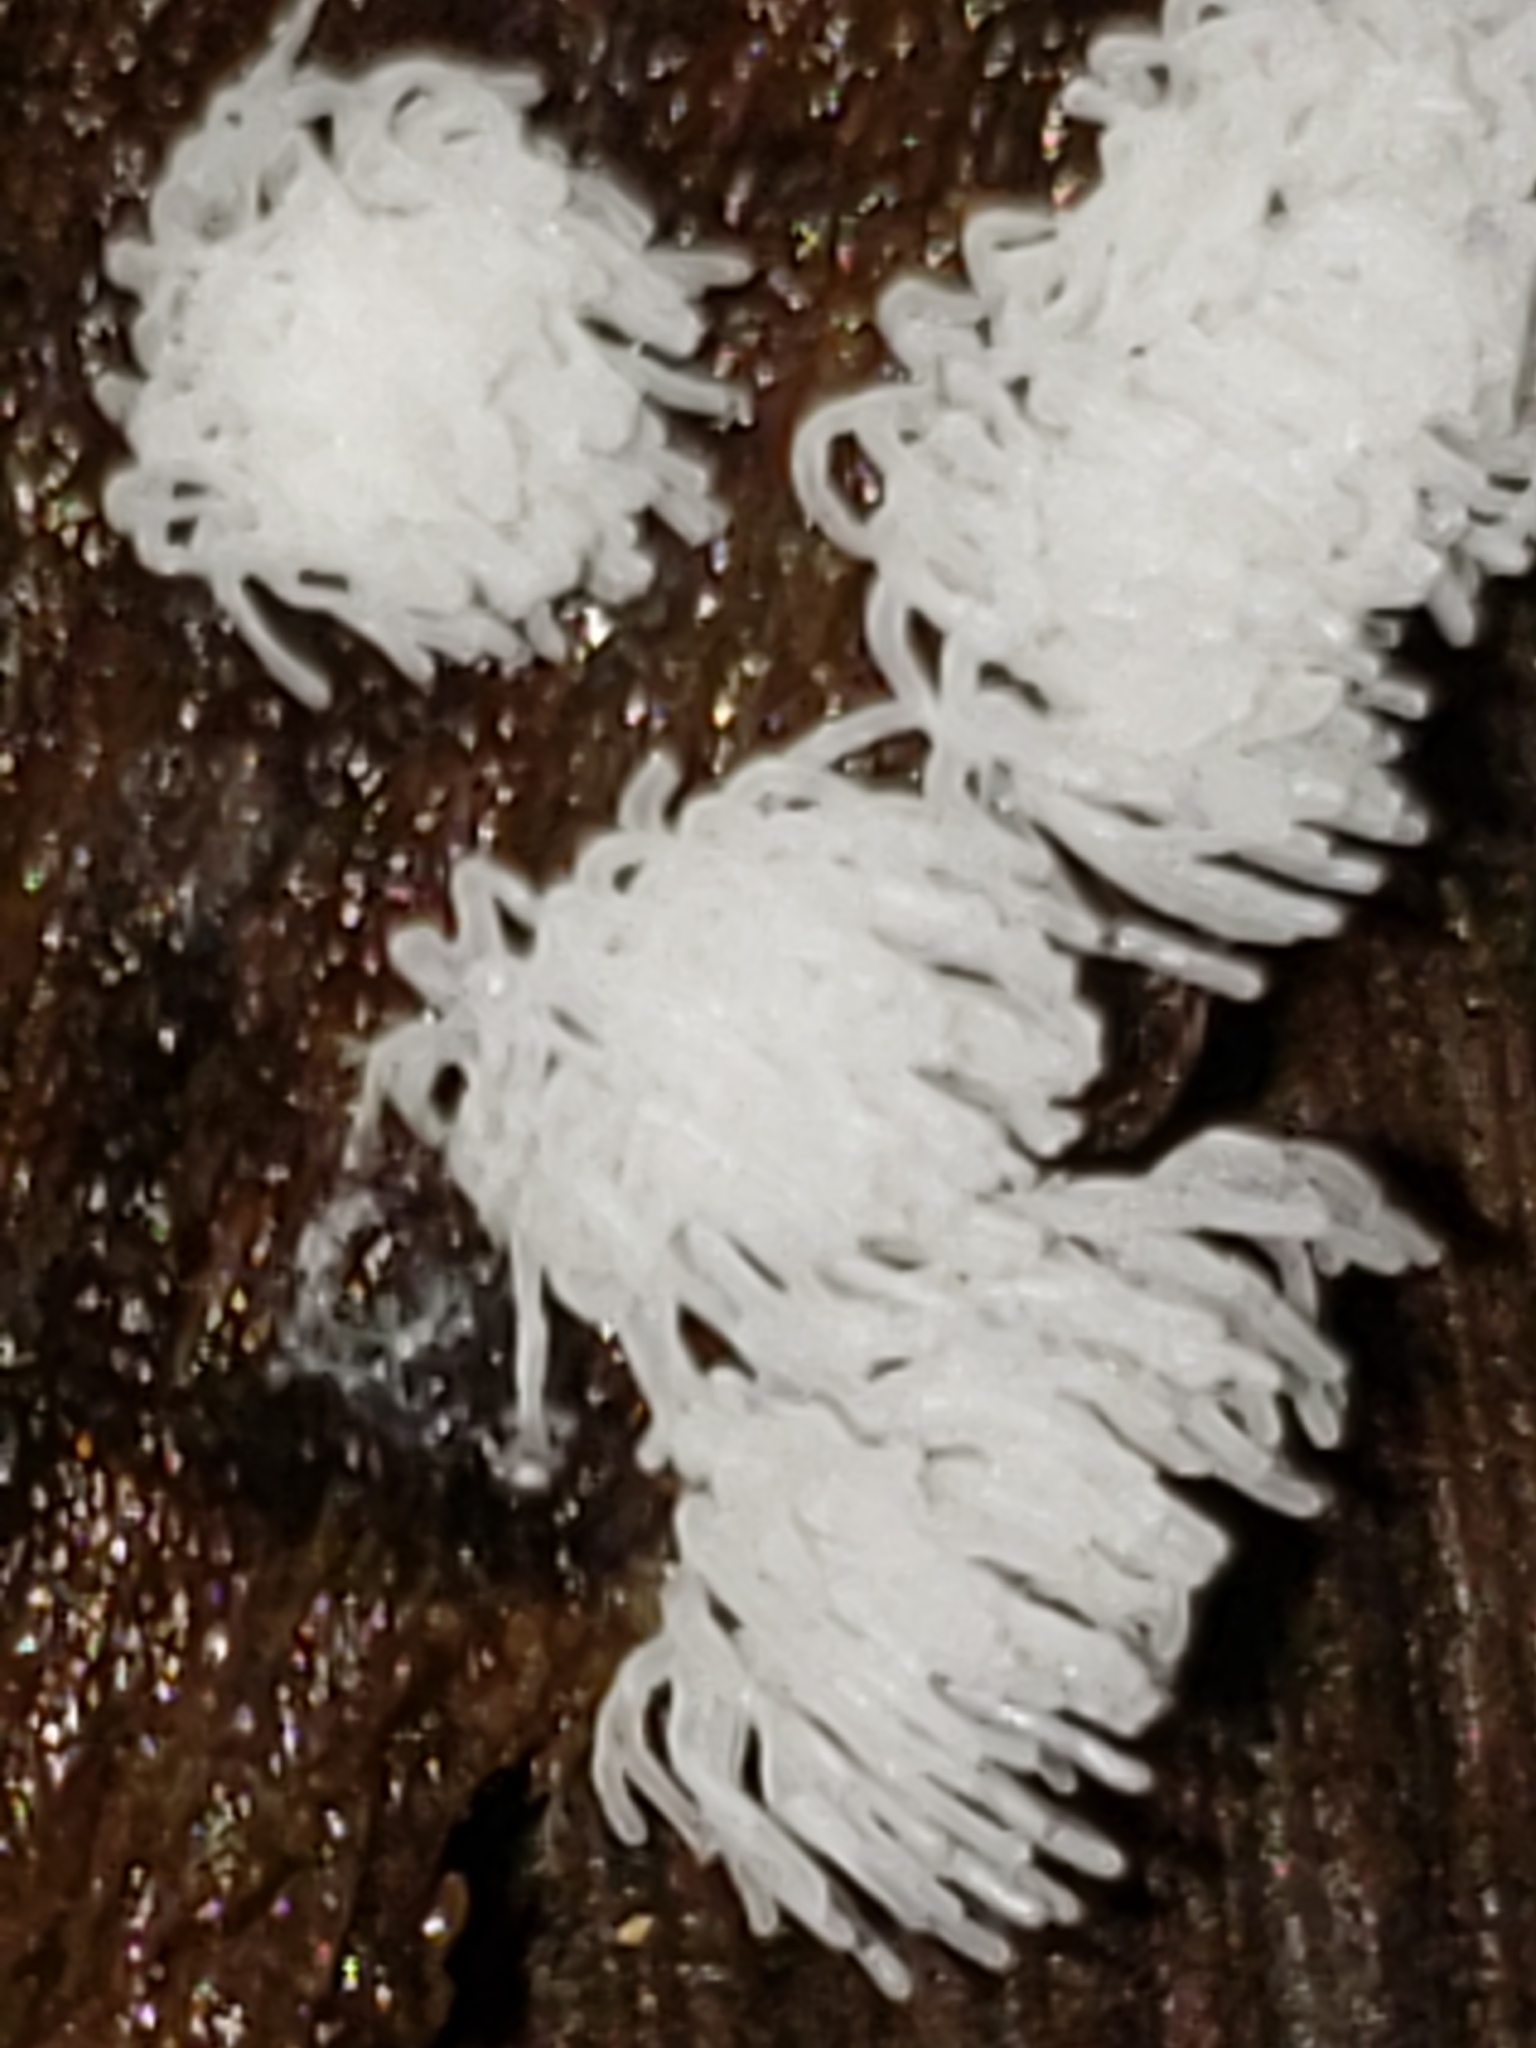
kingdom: Protozoa
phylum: Mycetozoa
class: Protosteliomycetes
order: Ceratiomyxales
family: Ceratiomyxaceae
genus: Ceratiomyxa
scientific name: Ceratiomyxa fruticulosa
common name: Honeycomb coral slime mold
